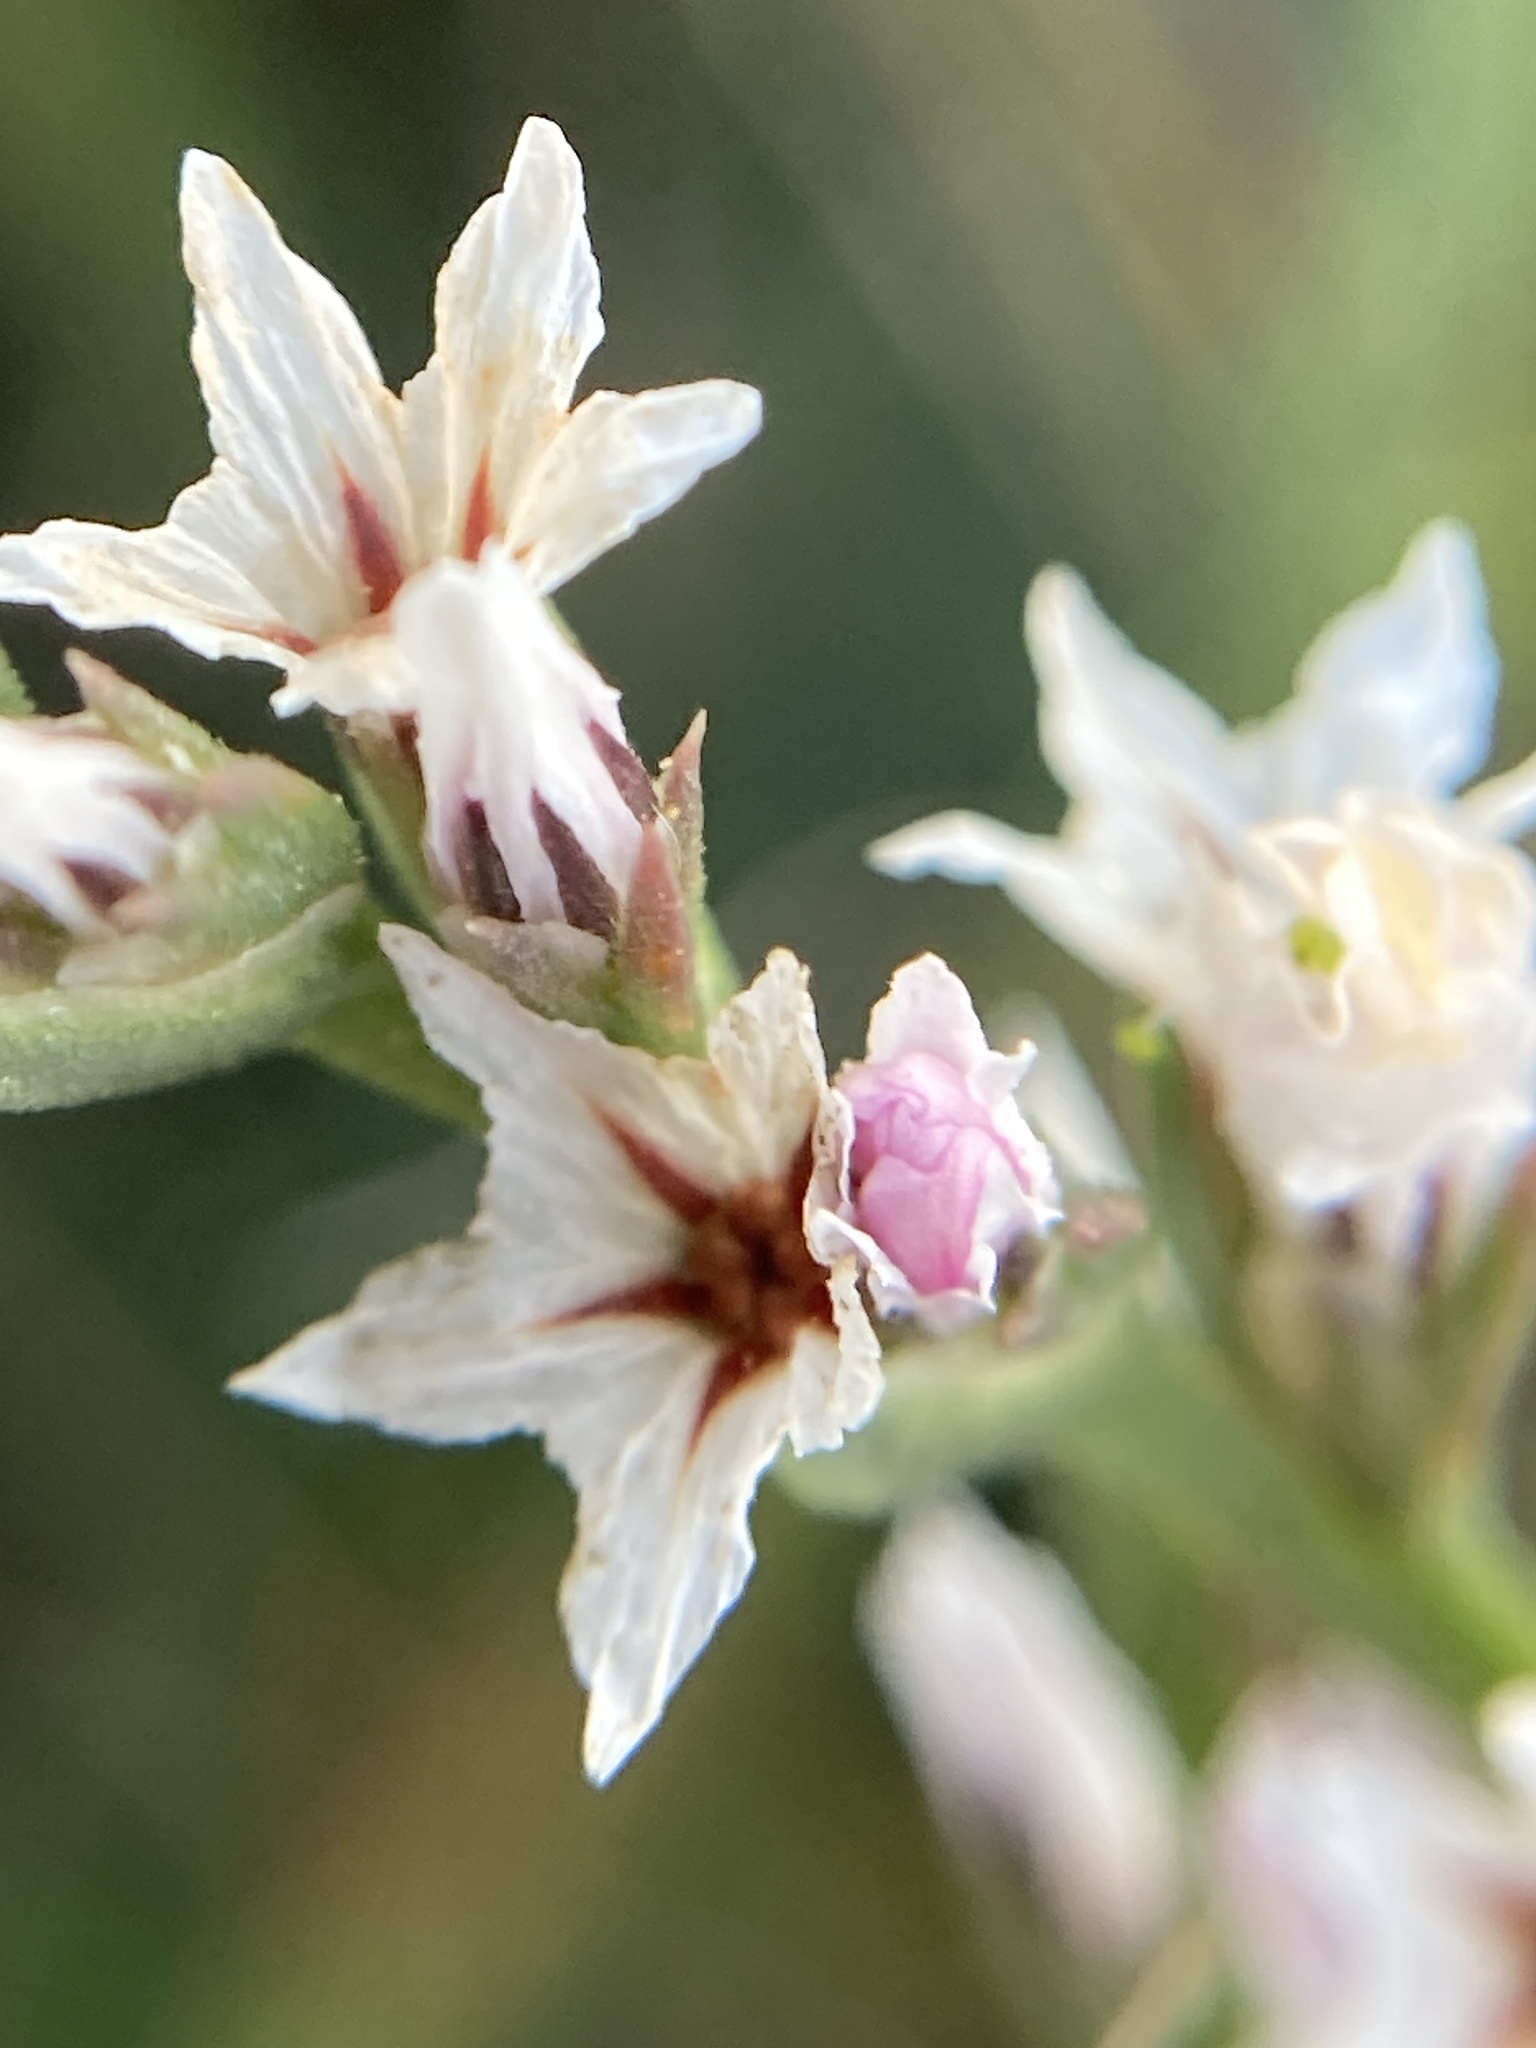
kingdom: Plantae
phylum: Tracheophyta
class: Magnoliopsida
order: Caryophyllales
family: Plumbaginaceae
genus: Goniolimon
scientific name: Goniolimon tataricum
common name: Statice
